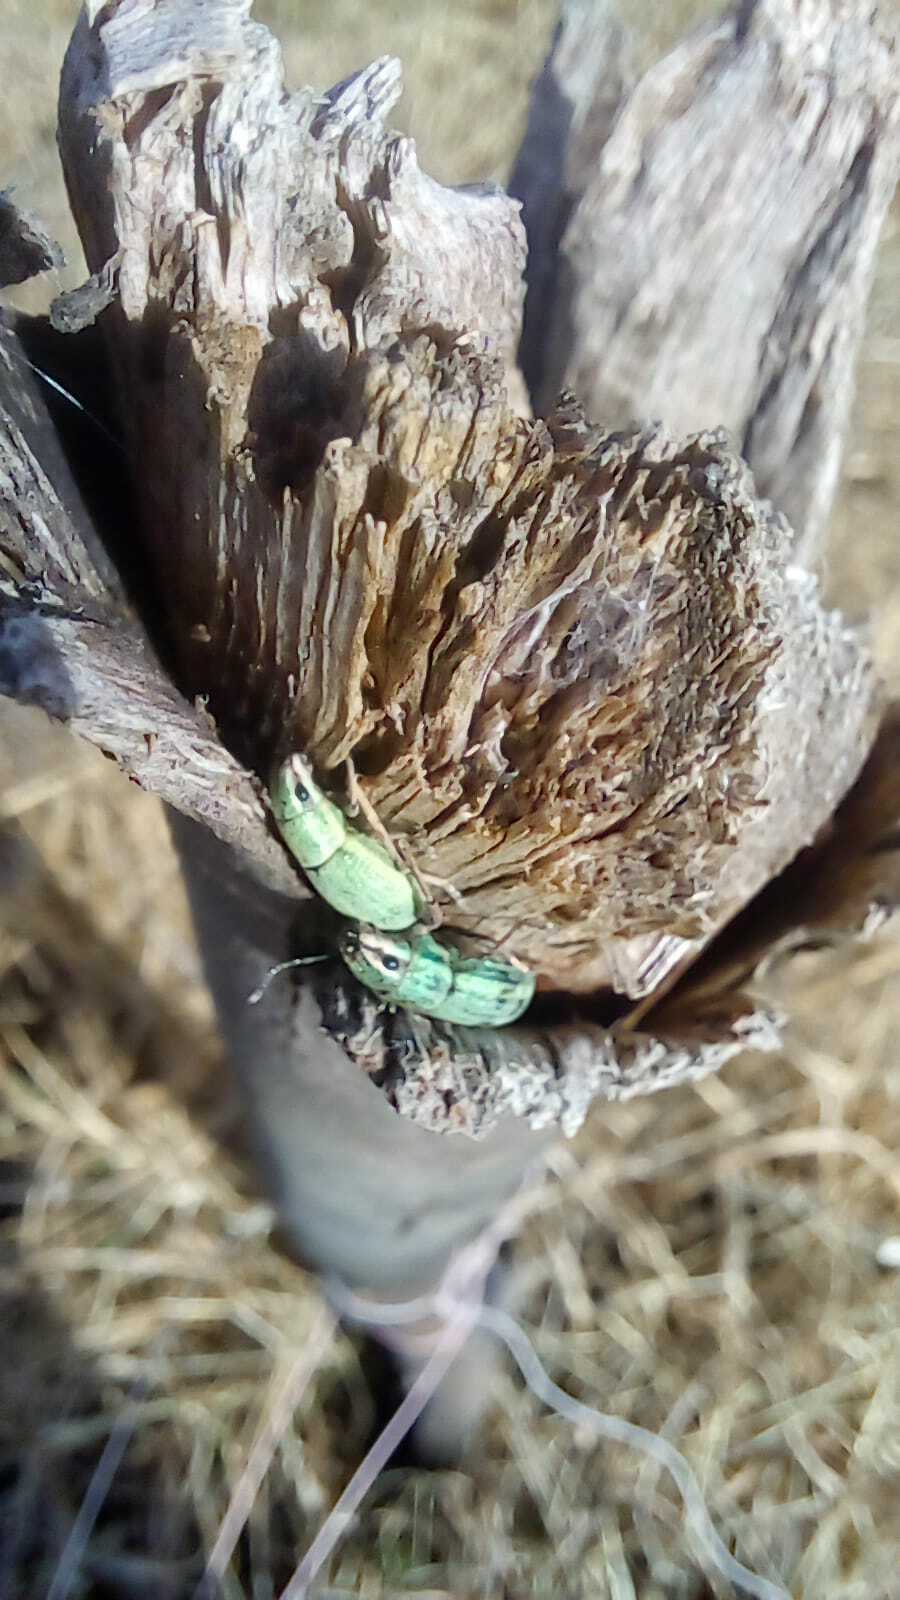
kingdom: Animalia
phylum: Arthropoda
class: Insecta
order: Coleoptera
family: Curculionidae
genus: Pantomorus
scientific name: Pantomorus viridisquamosus
